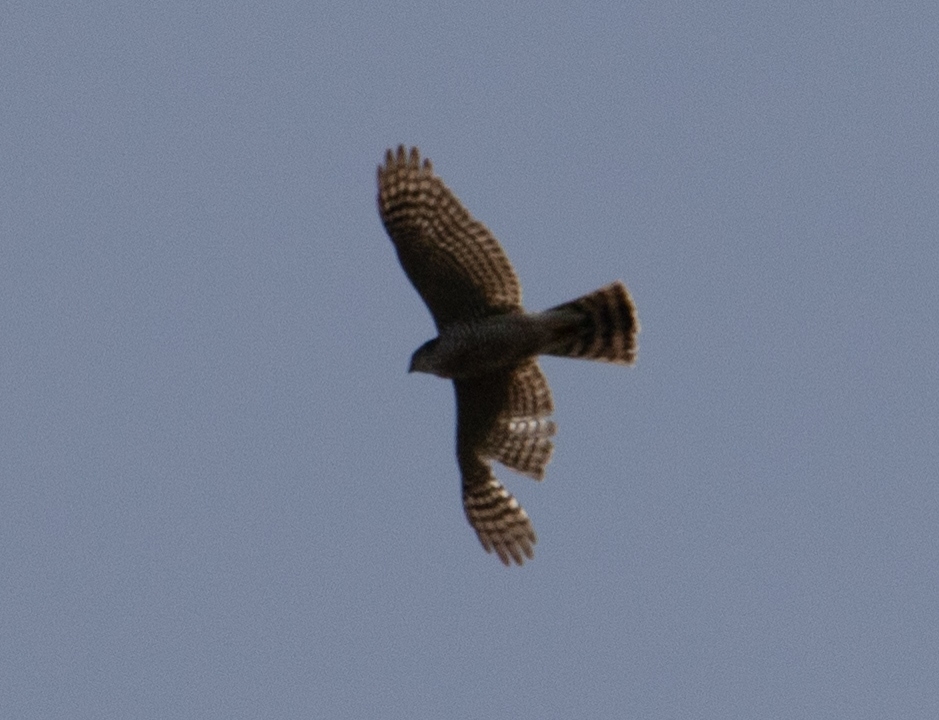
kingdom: Animalia
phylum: Chordata
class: Aves
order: Accipitriformes
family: Accipitridae
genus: Accipiter
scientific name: Accipiter nisus
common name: Eurasian sparrowhawk
